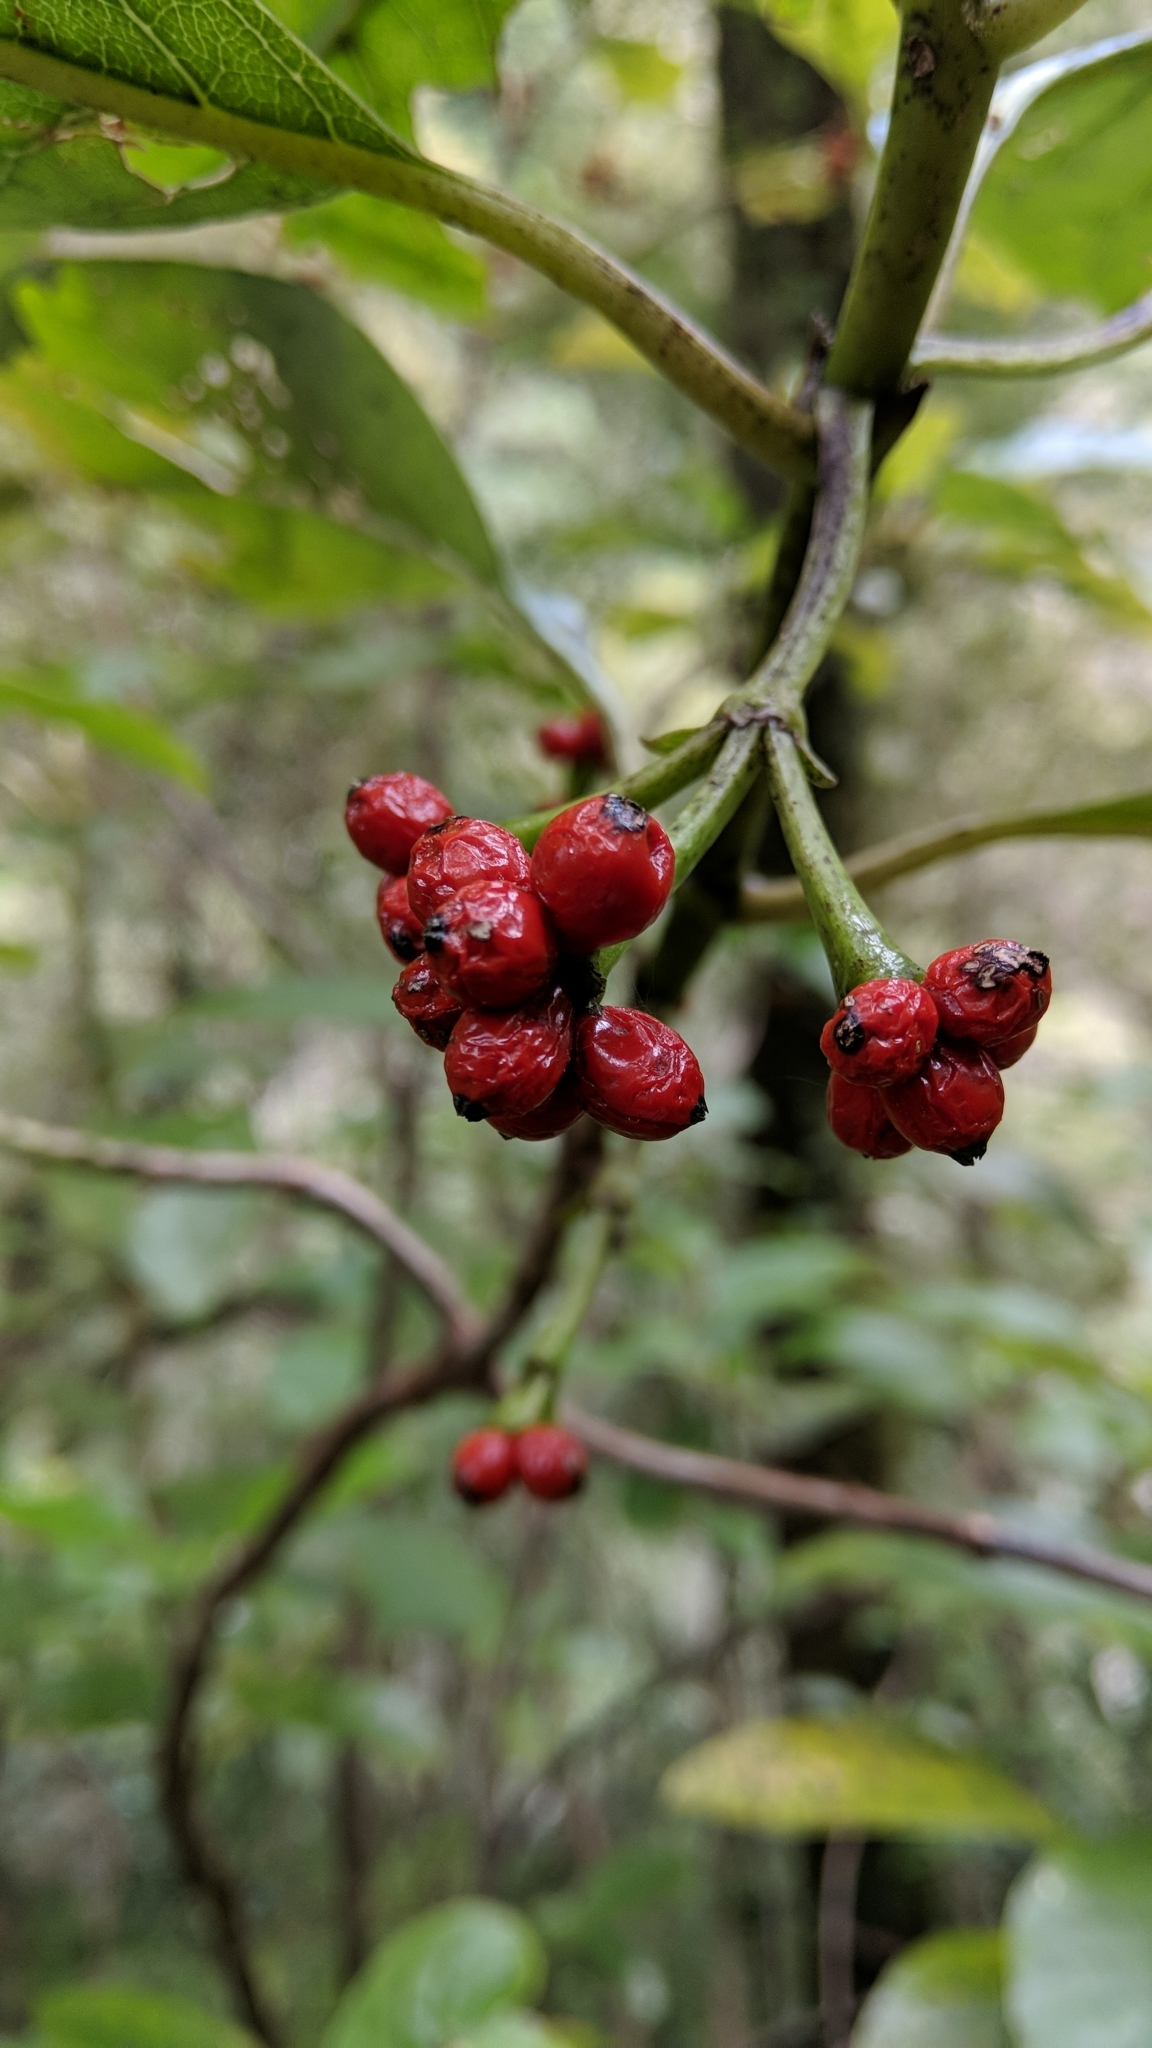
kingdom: Plantae
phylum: Tracheophyta
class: Magnoliopsida
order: Gentianales
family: Rubiaceae
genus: Coprosma
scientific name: Coprosma autumnalis
